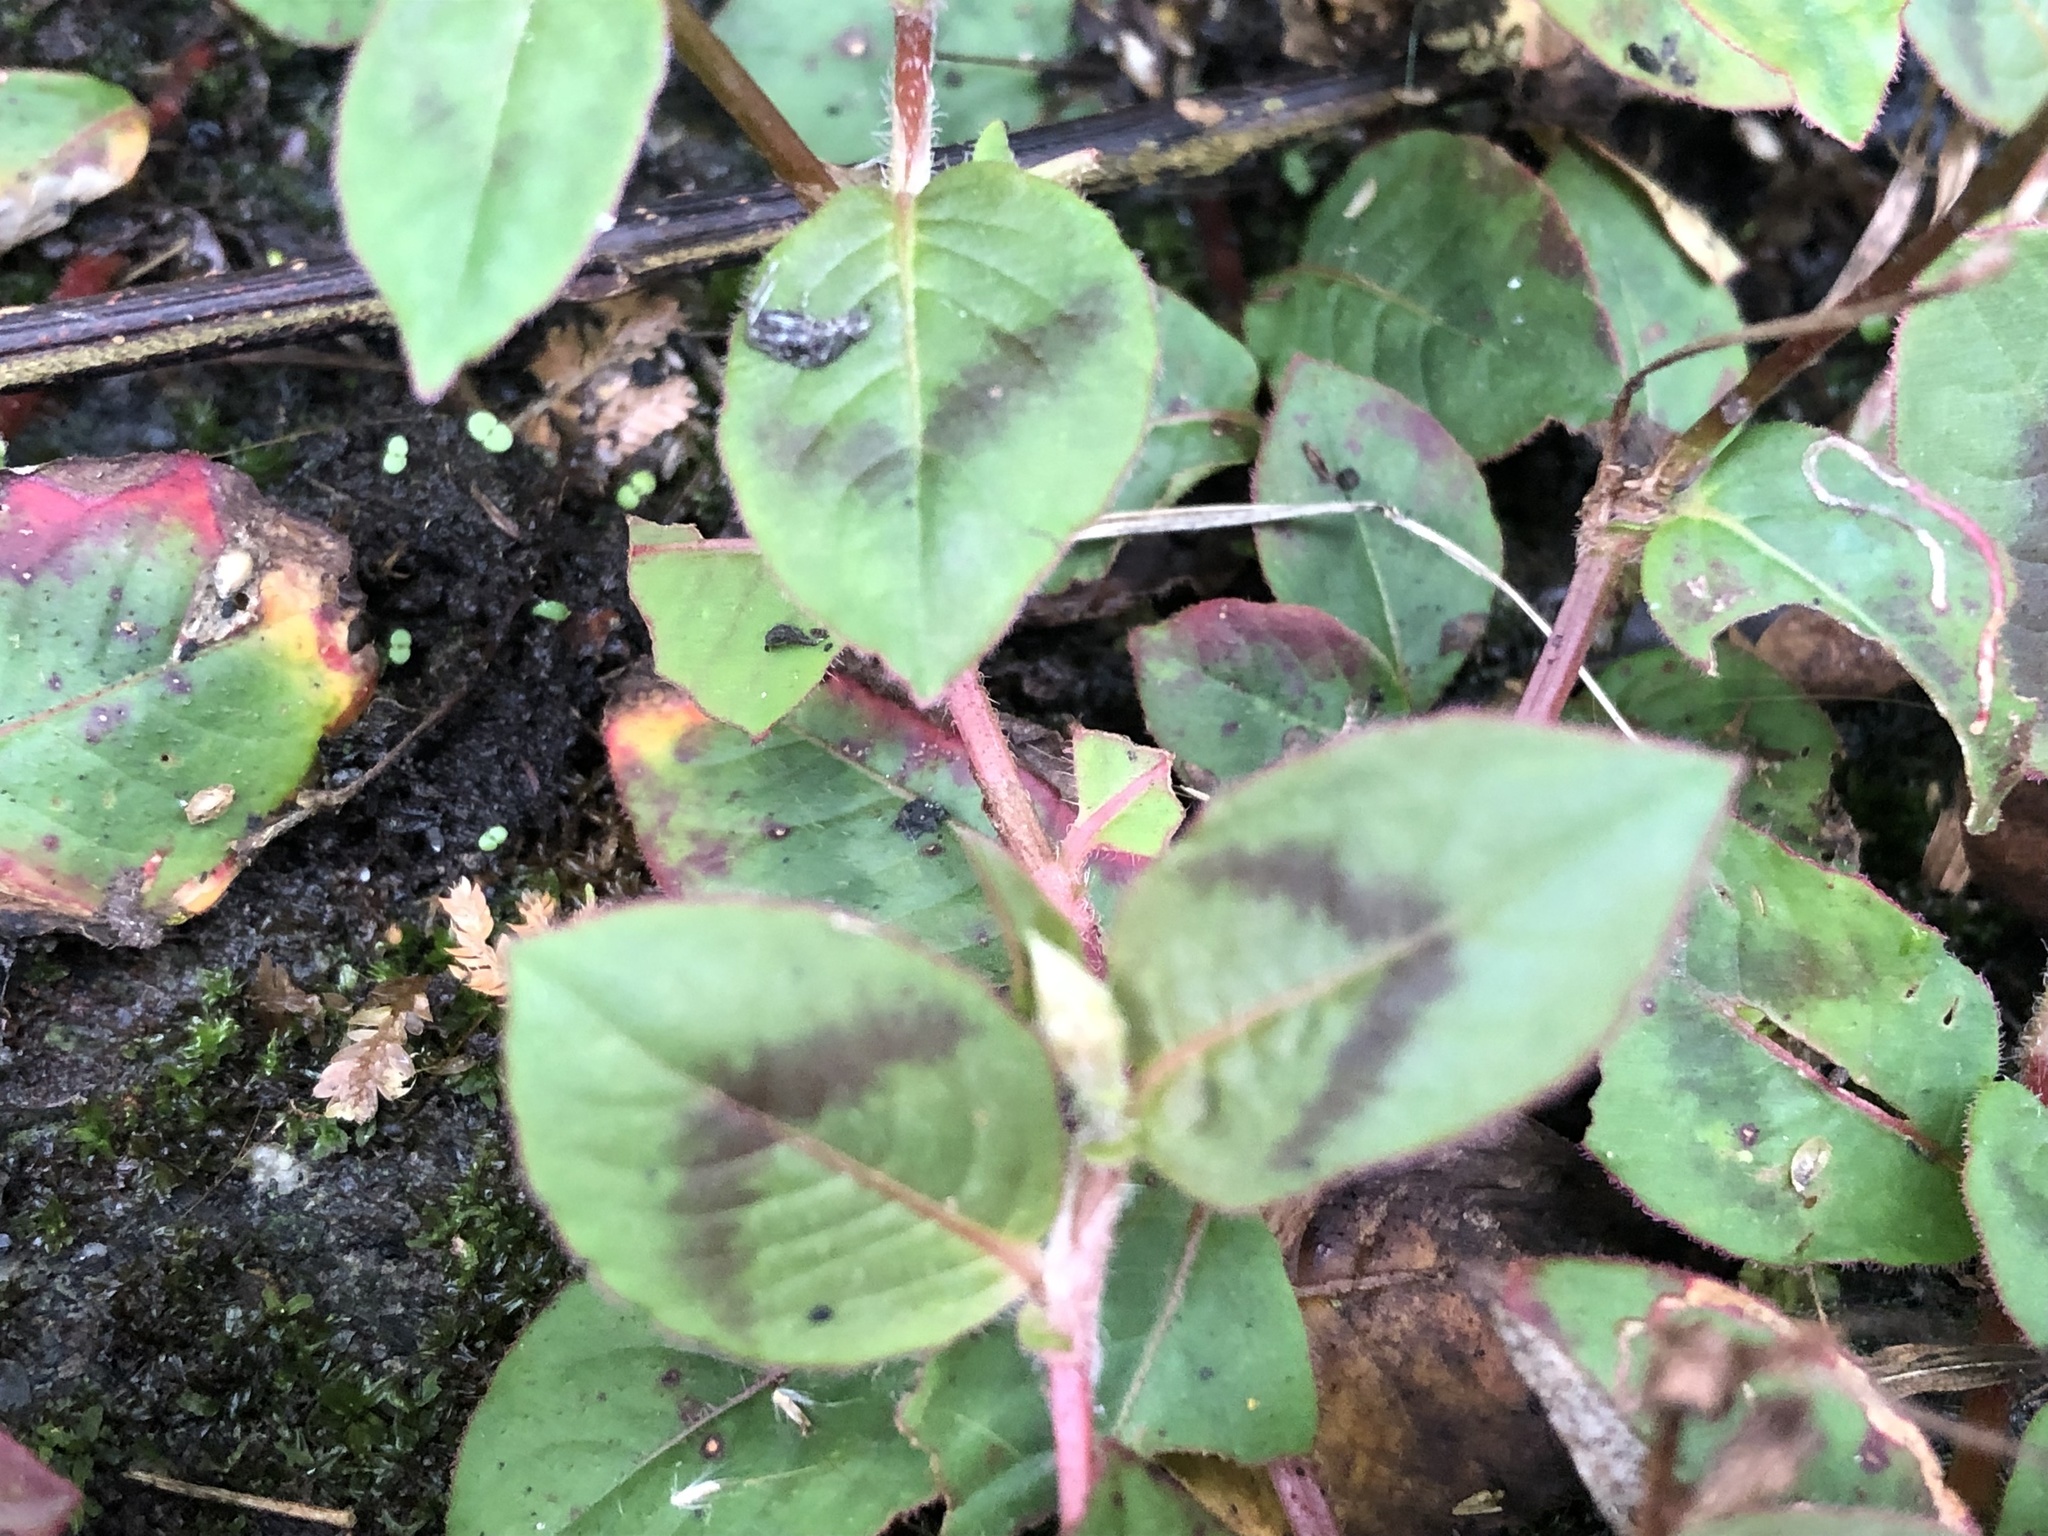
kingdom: Plantae
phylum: Tracheophyta
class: Magnoliopsida
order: Caryophyllales
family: Polygonaceae
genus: Persicaria
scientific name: Persicaria capitata
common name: Pinkhead smartweed
